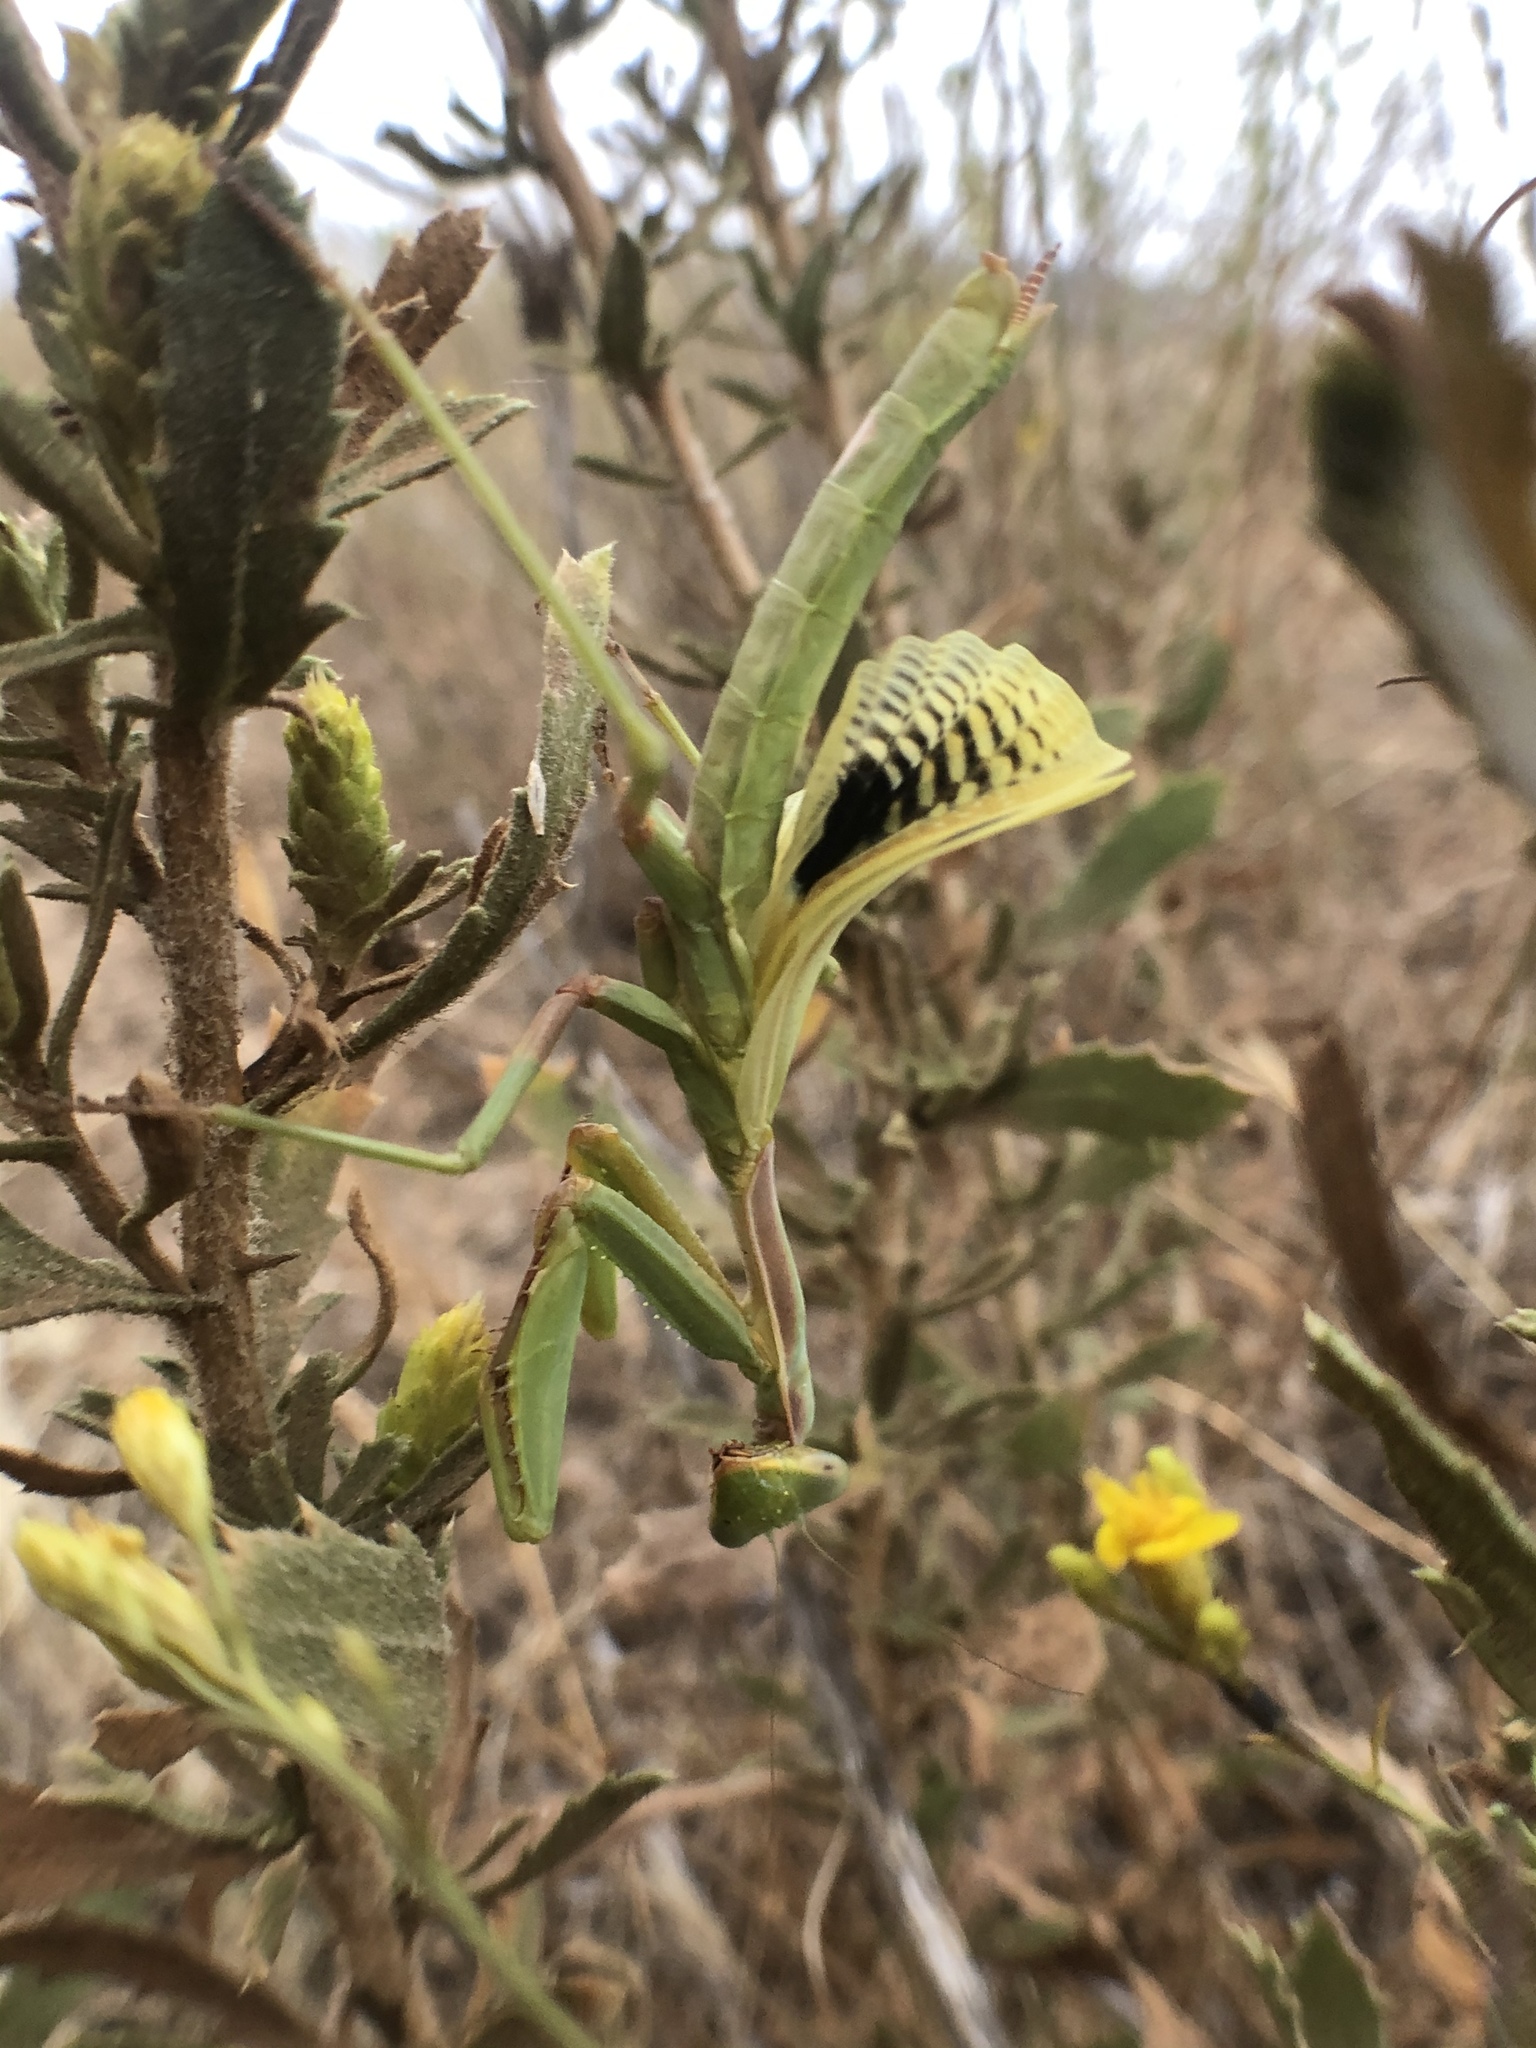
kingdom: Animalia
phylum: Arthropoda
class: Insecta
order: Mantodea
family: Eremiaphilidae
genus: Iris
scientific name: Iris oratoria
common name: Mediterranean mantis
